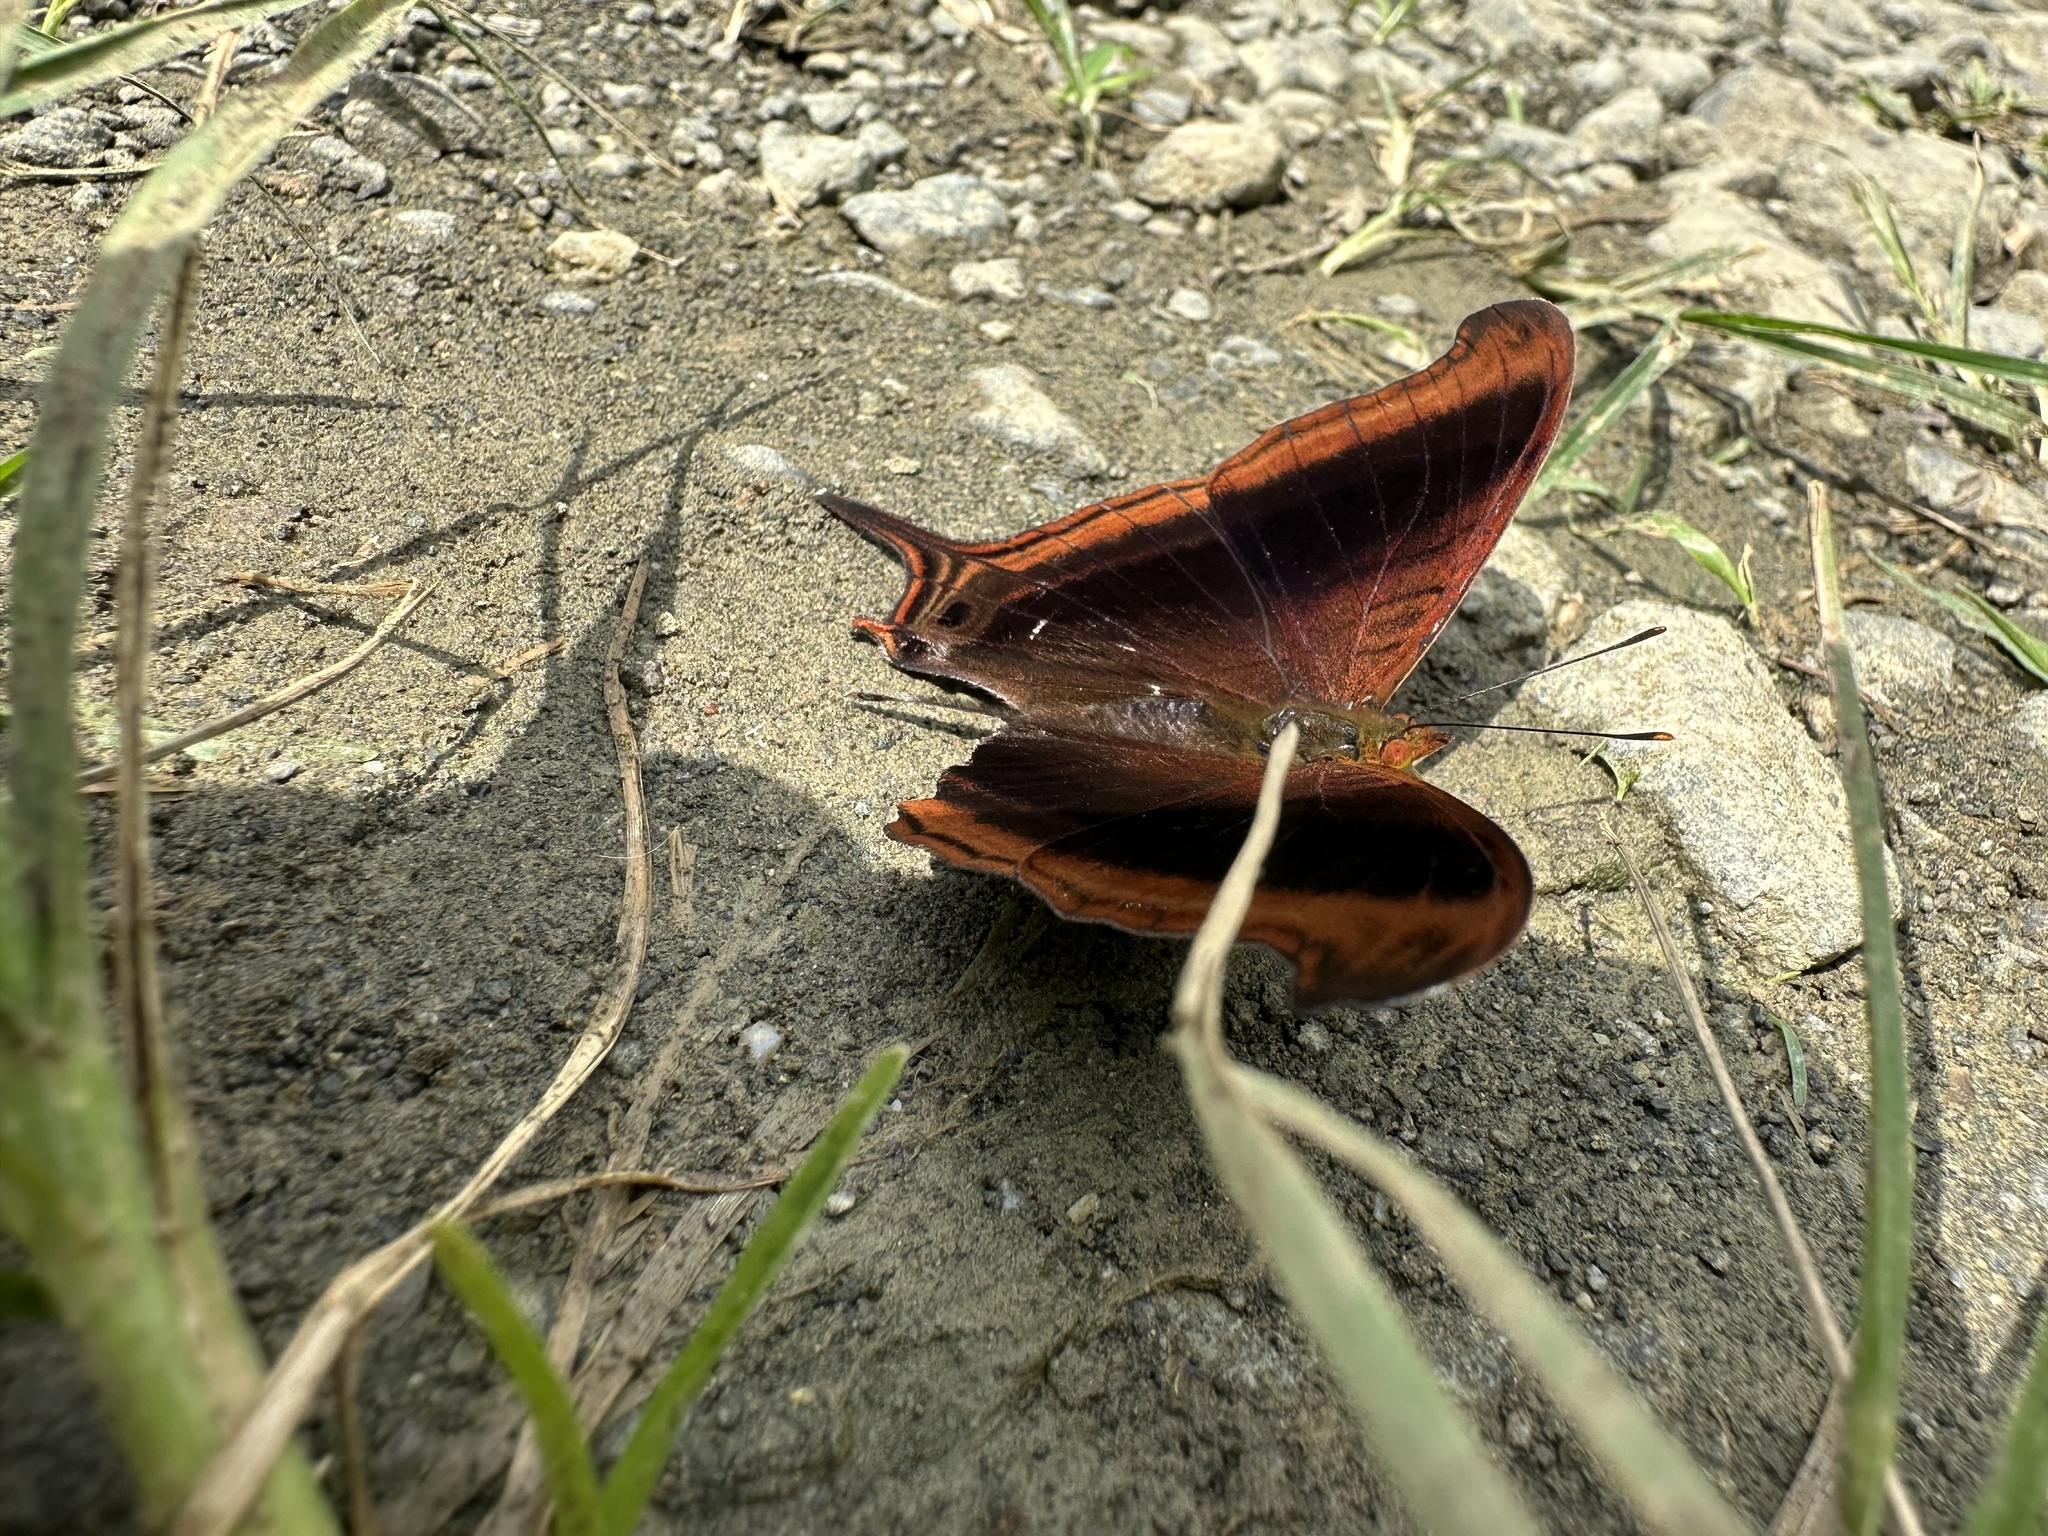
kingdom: Animalia
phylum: Arthropoda
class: Insecta
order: Lepidoptera
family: Nymphalidae
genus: Marpesia
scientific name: Marpesia zerynthia
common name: Waiter daggerwing
